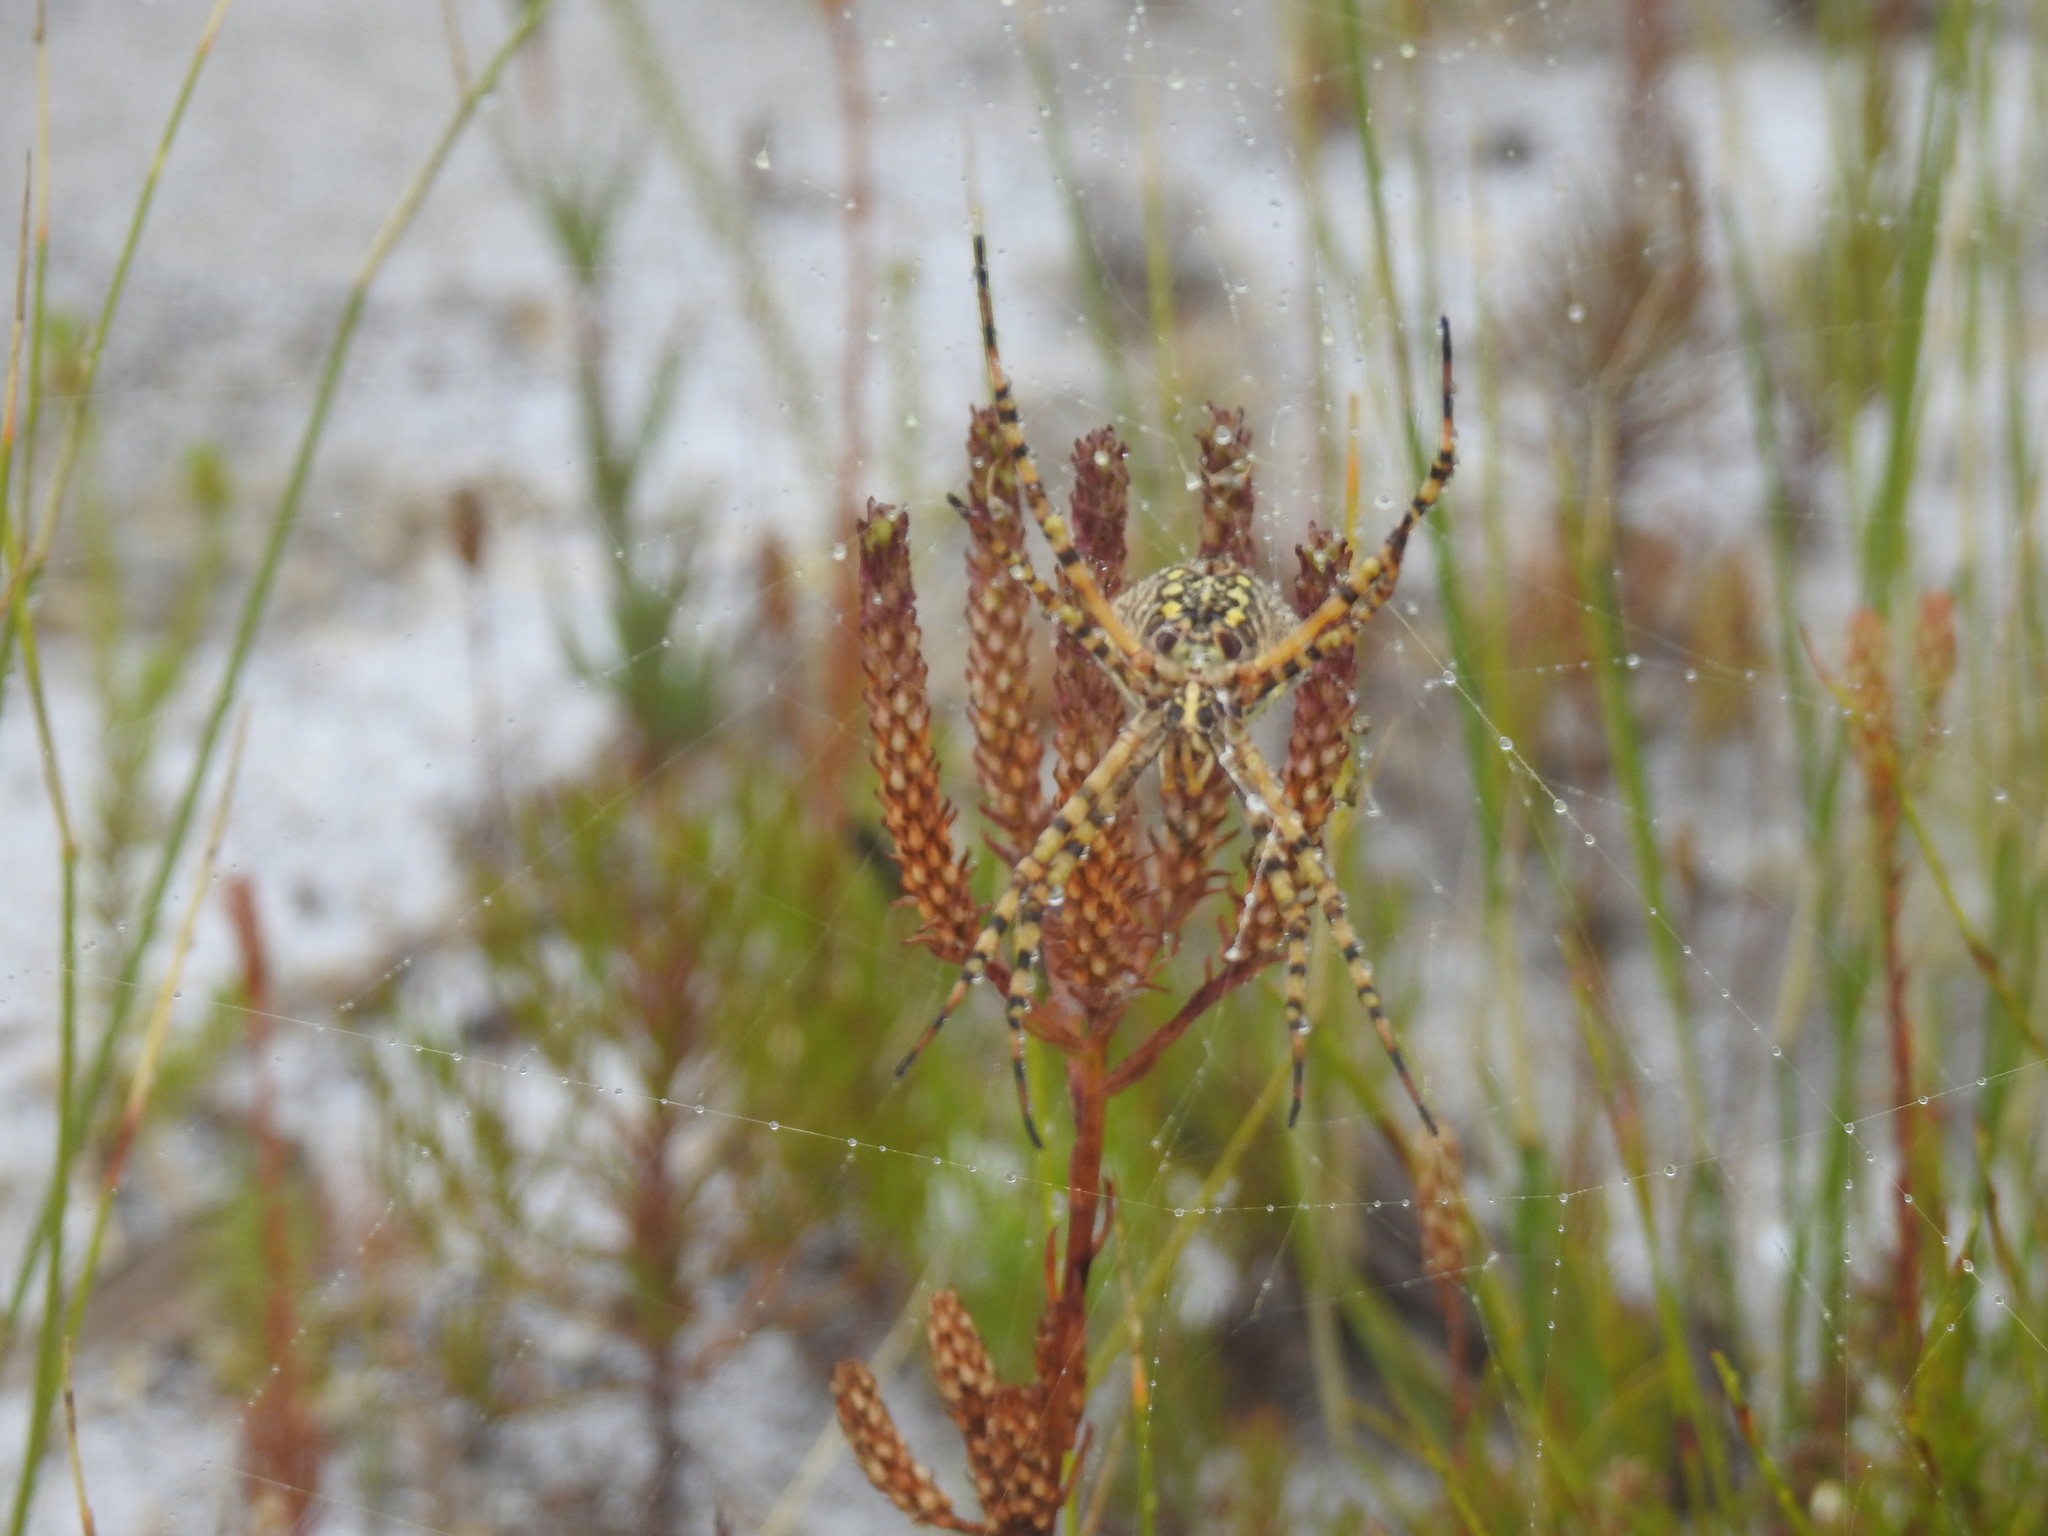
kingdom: Animalia
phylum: Arthropoda
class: Arachnida
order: Araneae
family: Araneidae
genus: Argiope
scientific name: Argiope australis
